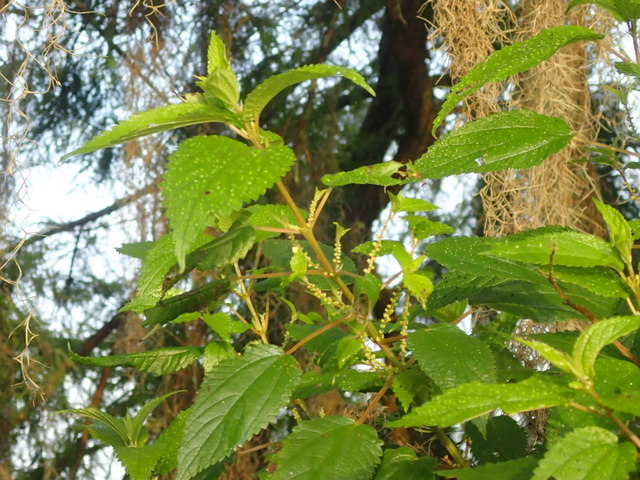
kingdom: Plantae
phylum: Tracheophyta
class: Magnoliopsida
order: Rosales
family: Urticaceae
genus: Boehmeria
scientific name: Boehmeria cylindrica
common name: Bog-hemp
